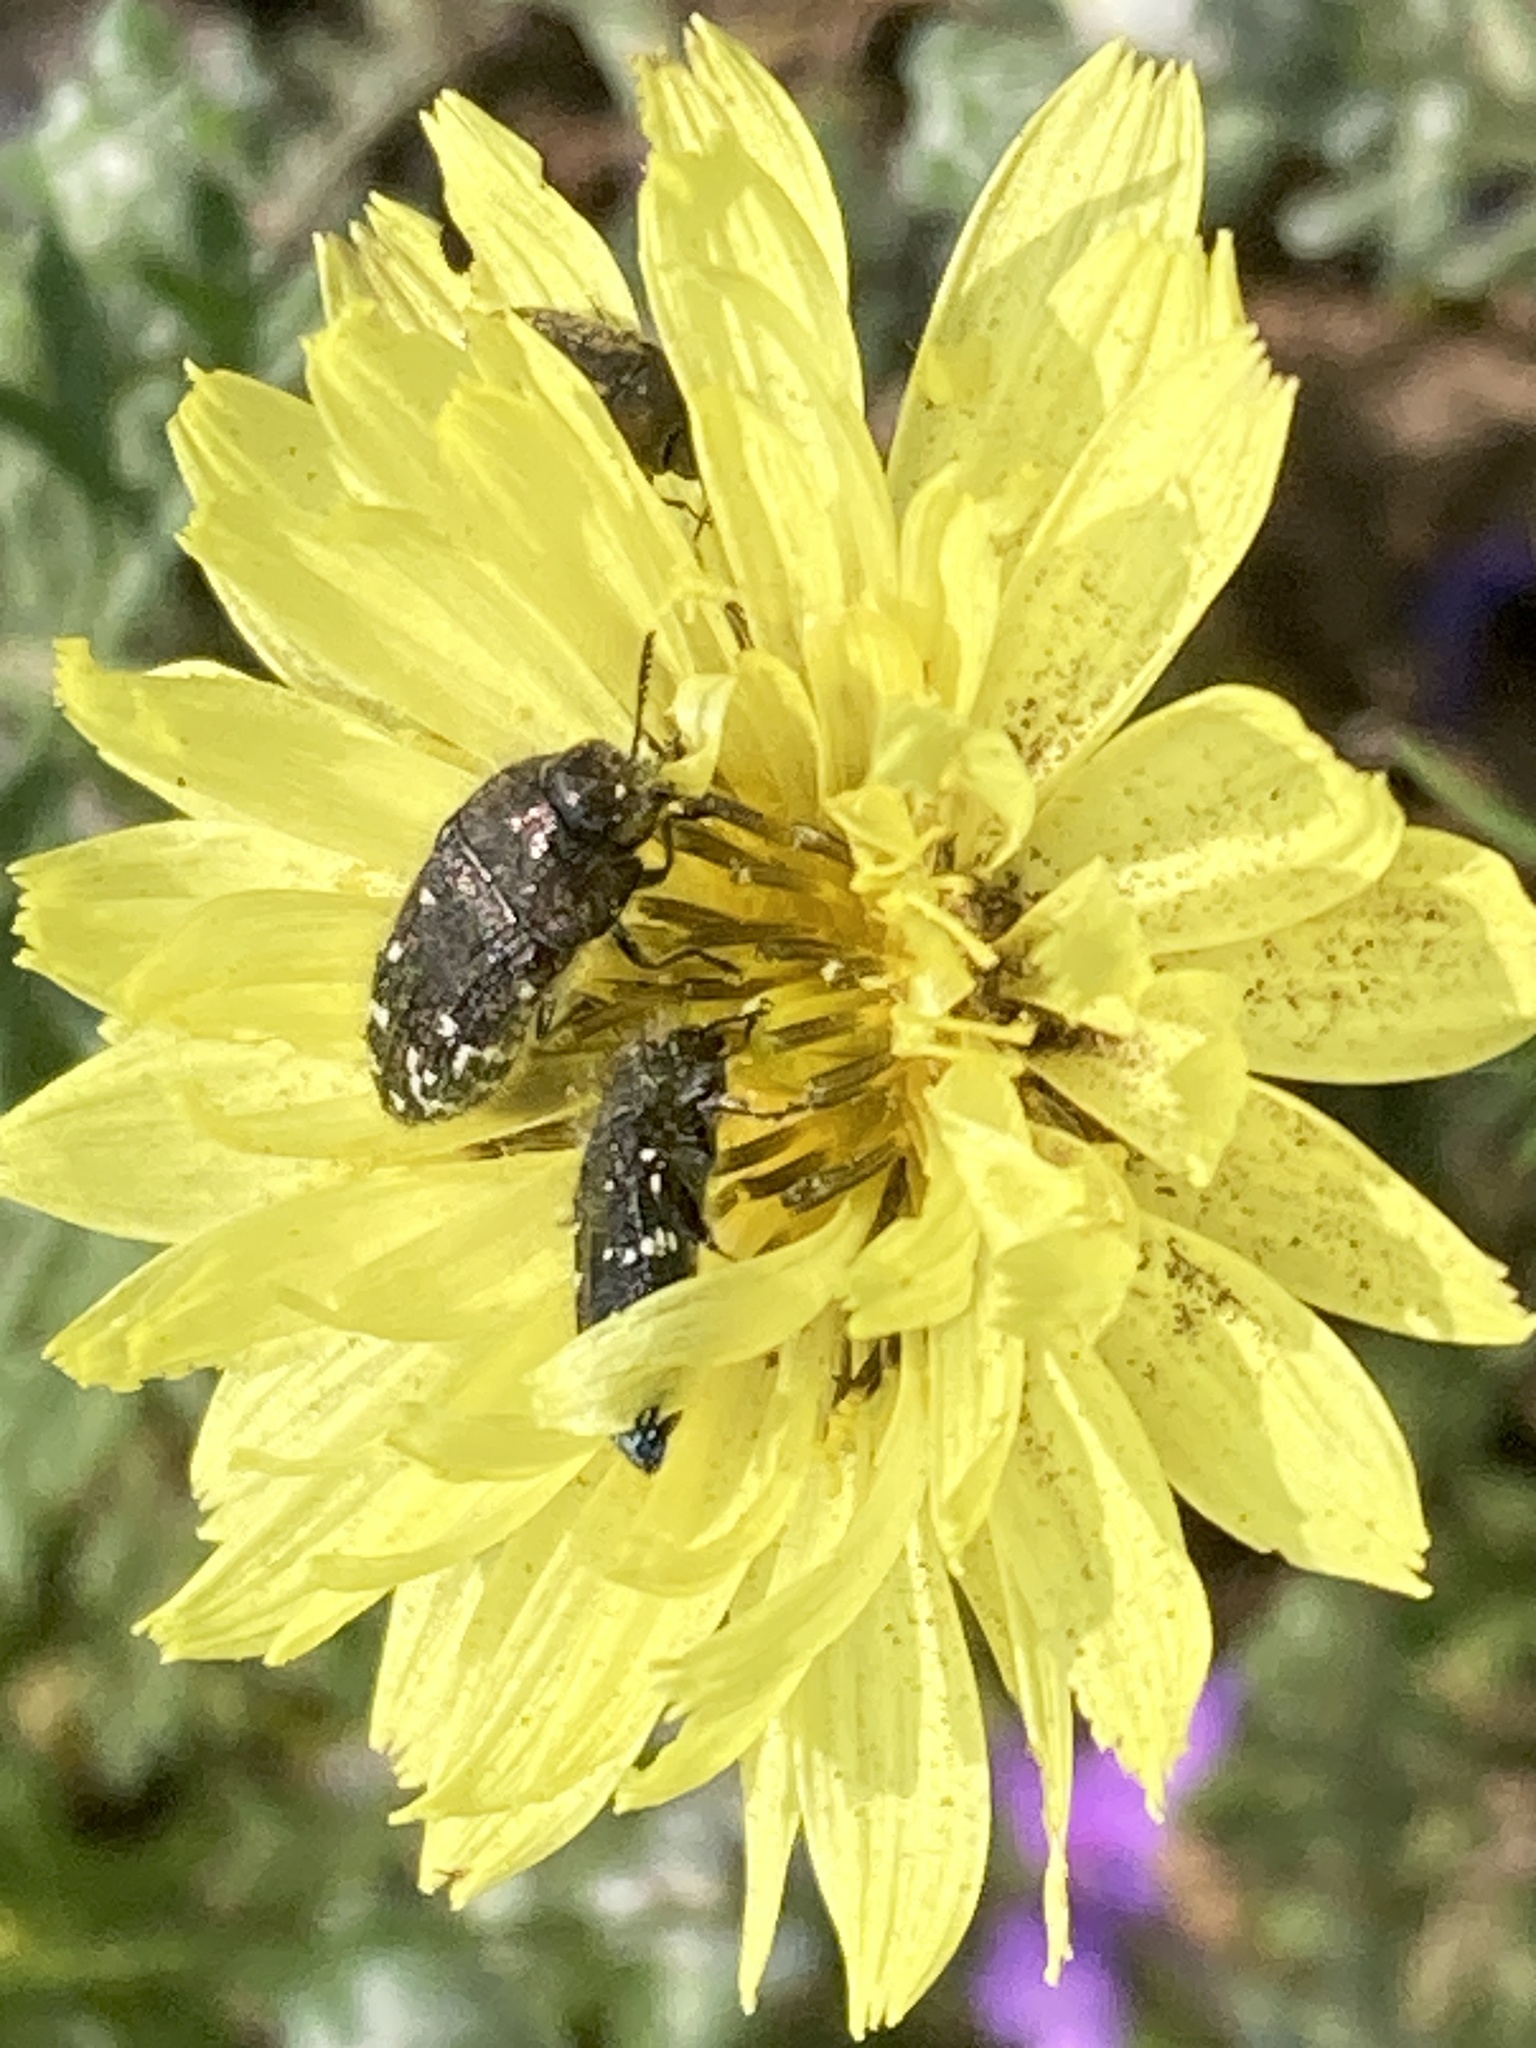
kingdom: Animalia
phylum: Arthropoda
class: Insecta
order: Coleoptera
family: Buprestidae
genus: Acmaeodera
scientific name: Acmaeodera ornatoides
